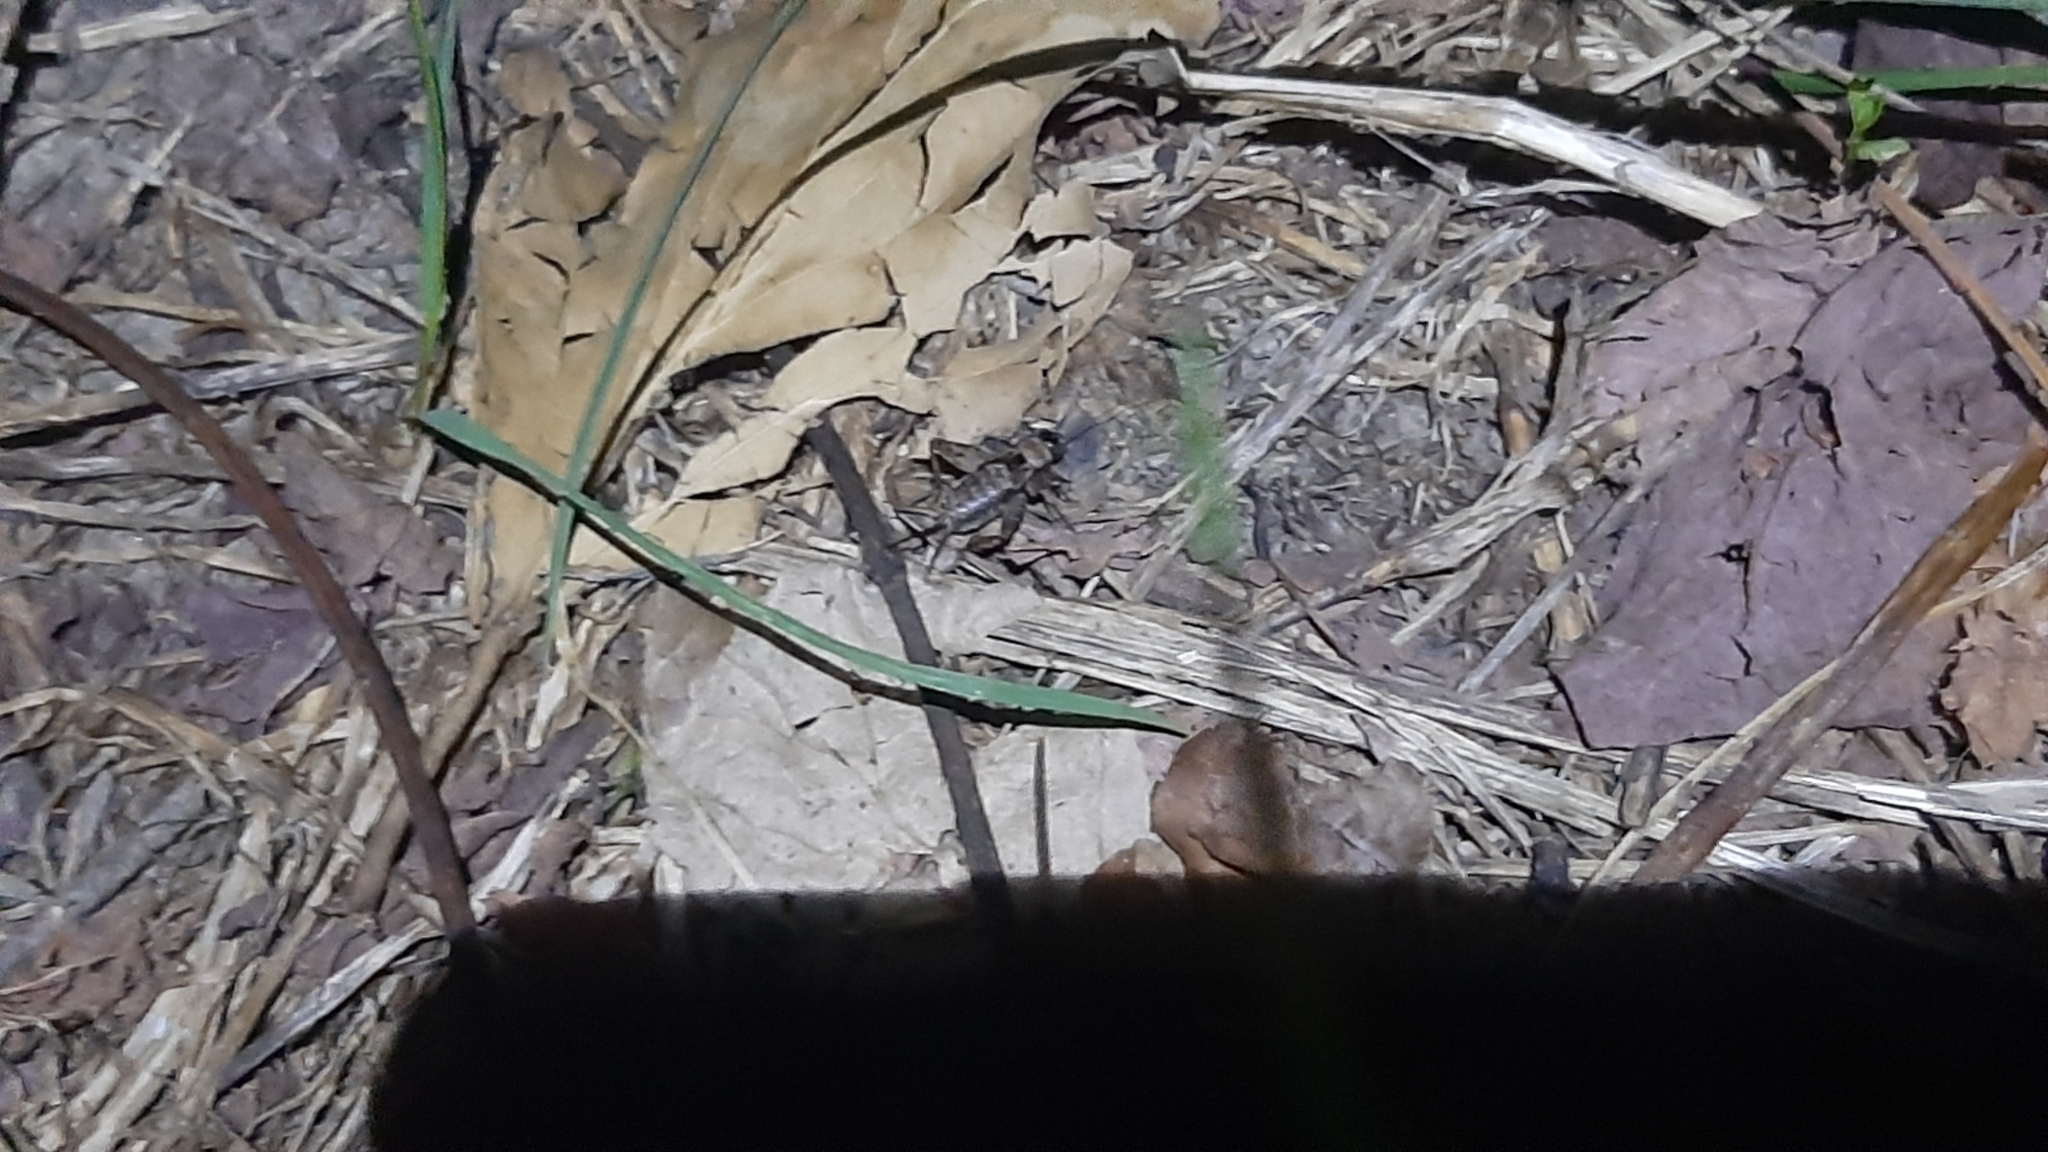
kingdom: Animalia
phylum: Arthropoda
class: Insecta
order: Orthoptera
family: Trigonidiidae
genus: Nemobius
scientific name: Nemobius sylvestris
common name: Wood-cricket
